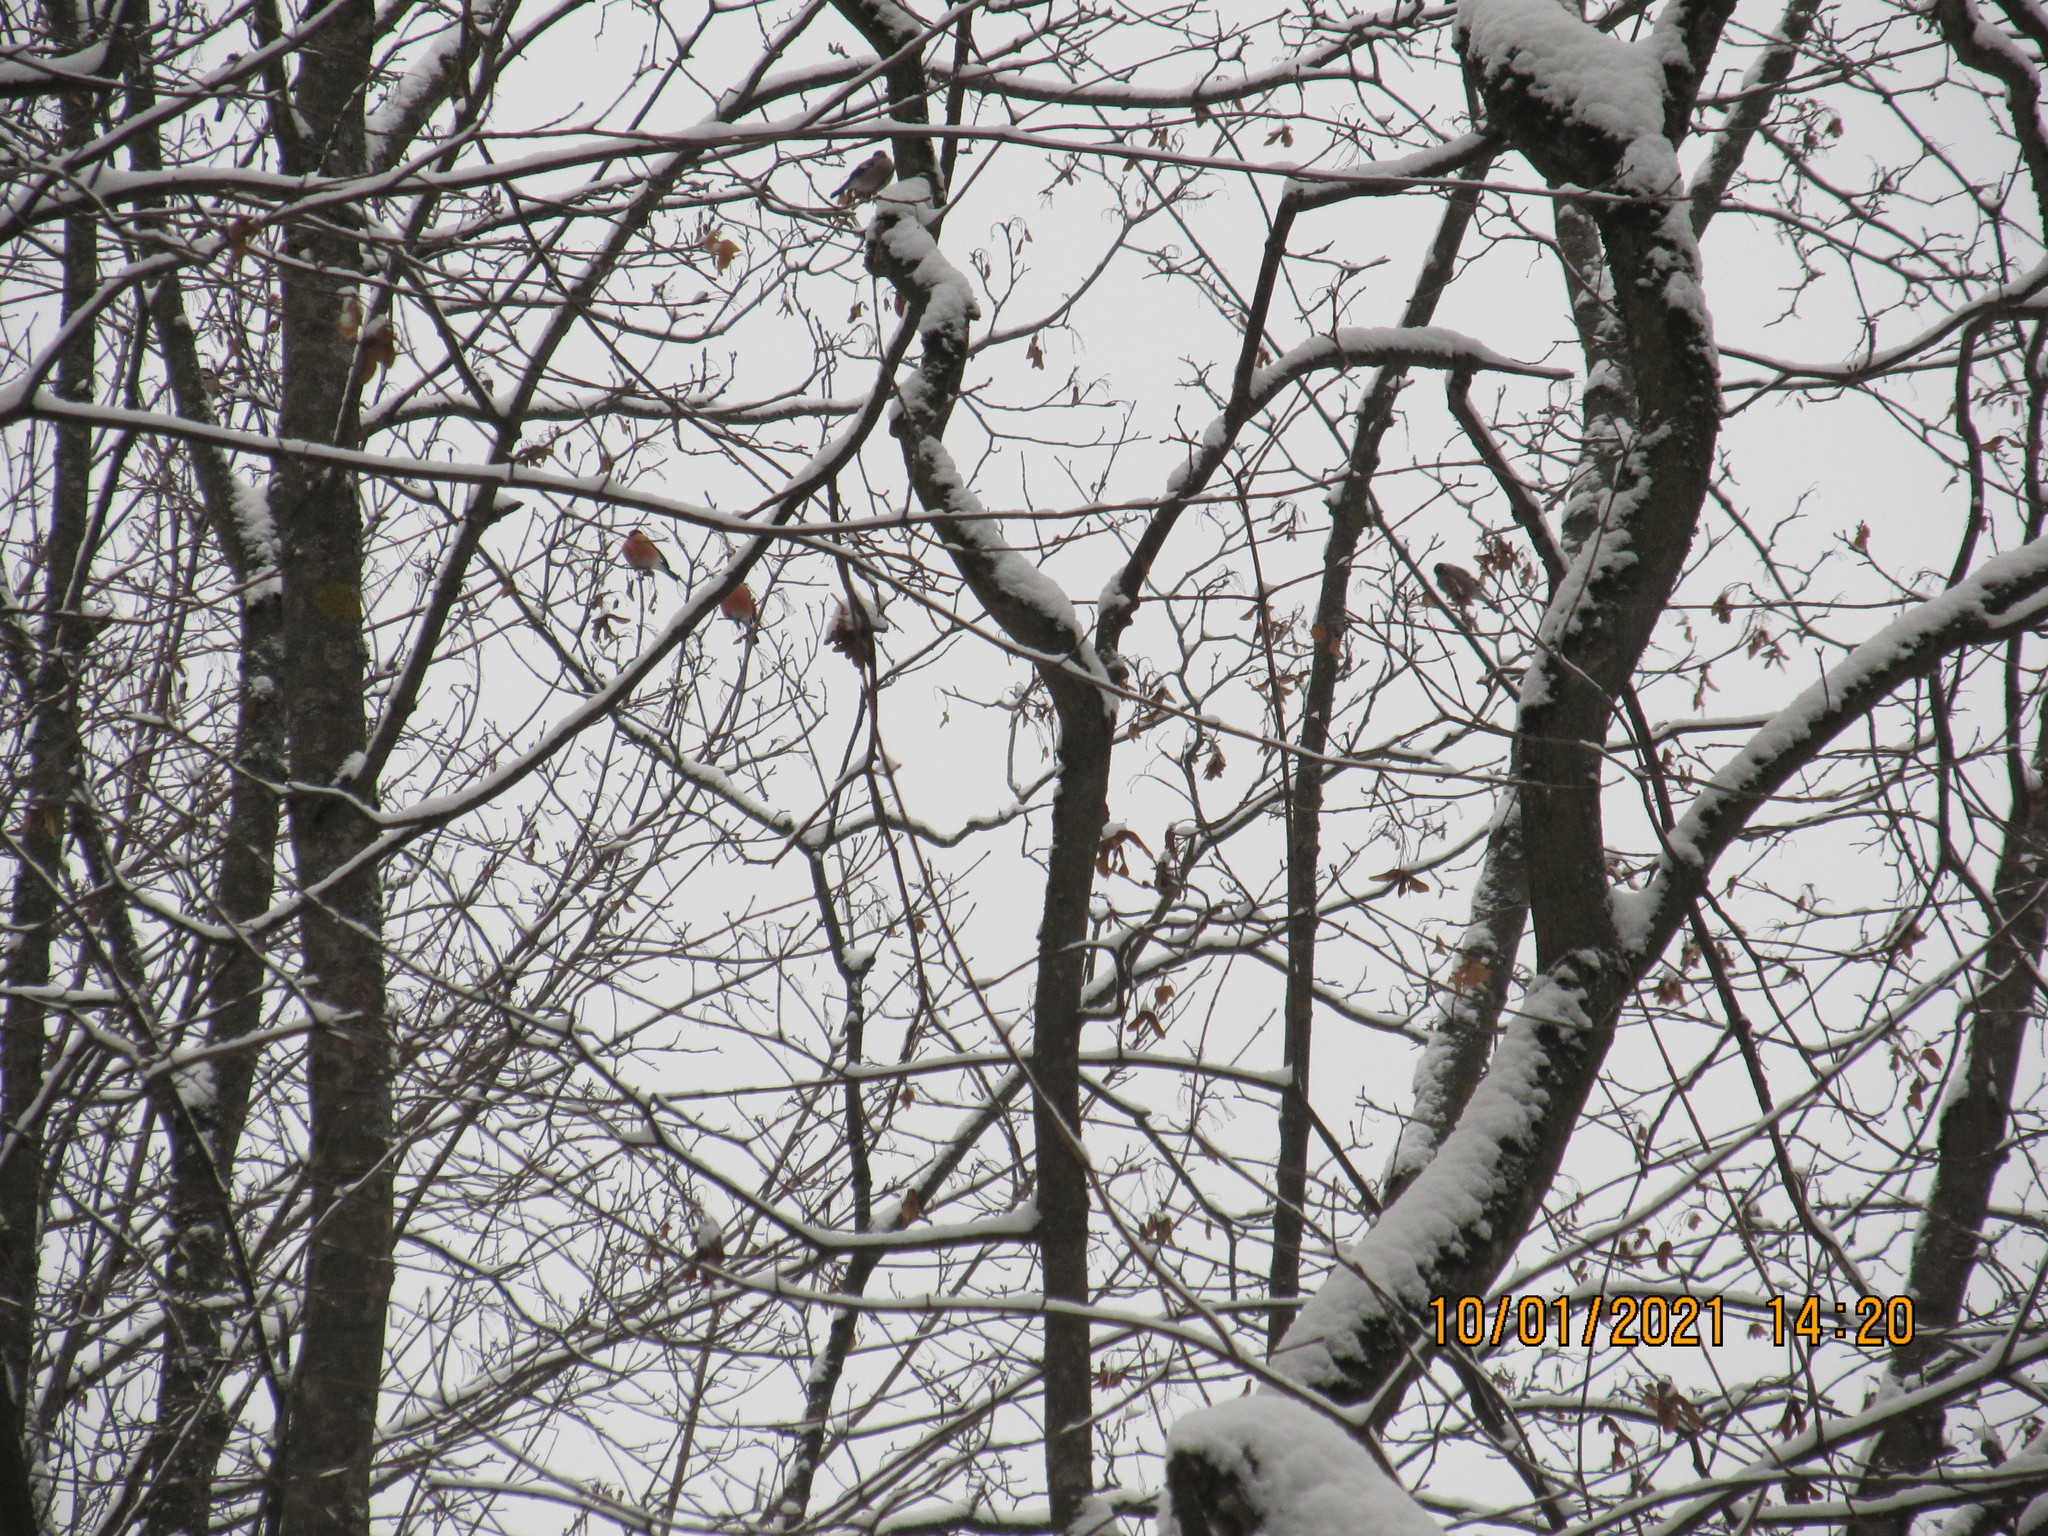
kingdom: Animalia
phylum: Chordata
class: Aves
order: Passeriformes
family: Fringillidae
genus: Pyrrhula
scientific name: Pyrrhula pyrrhula
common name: Eurasian bullfinch
